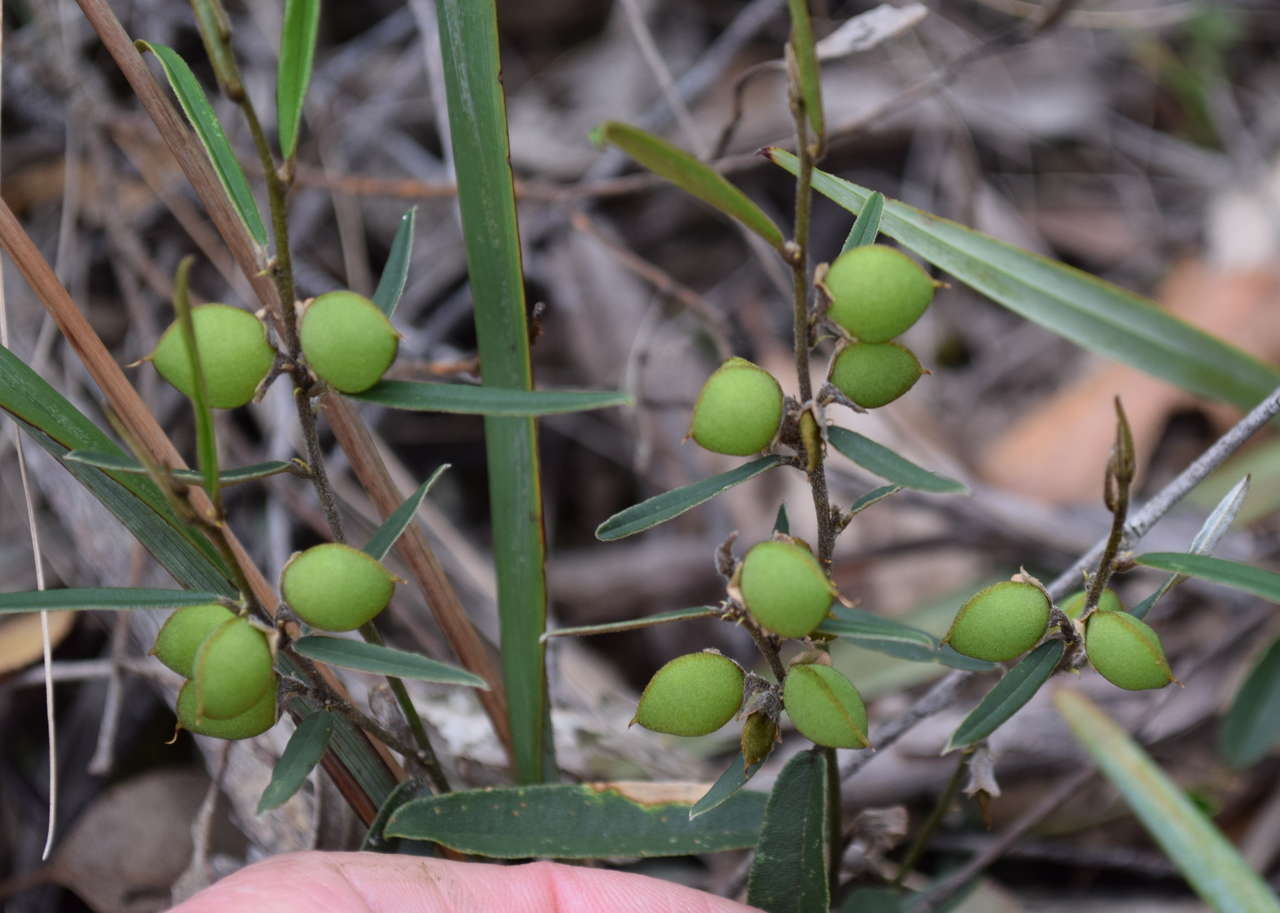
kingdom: Plantae
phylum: Tracheophyta
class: Magnoliopsida
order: Fabales
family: Fabaceae
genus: Hovea
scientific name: Hovea heterophylla
